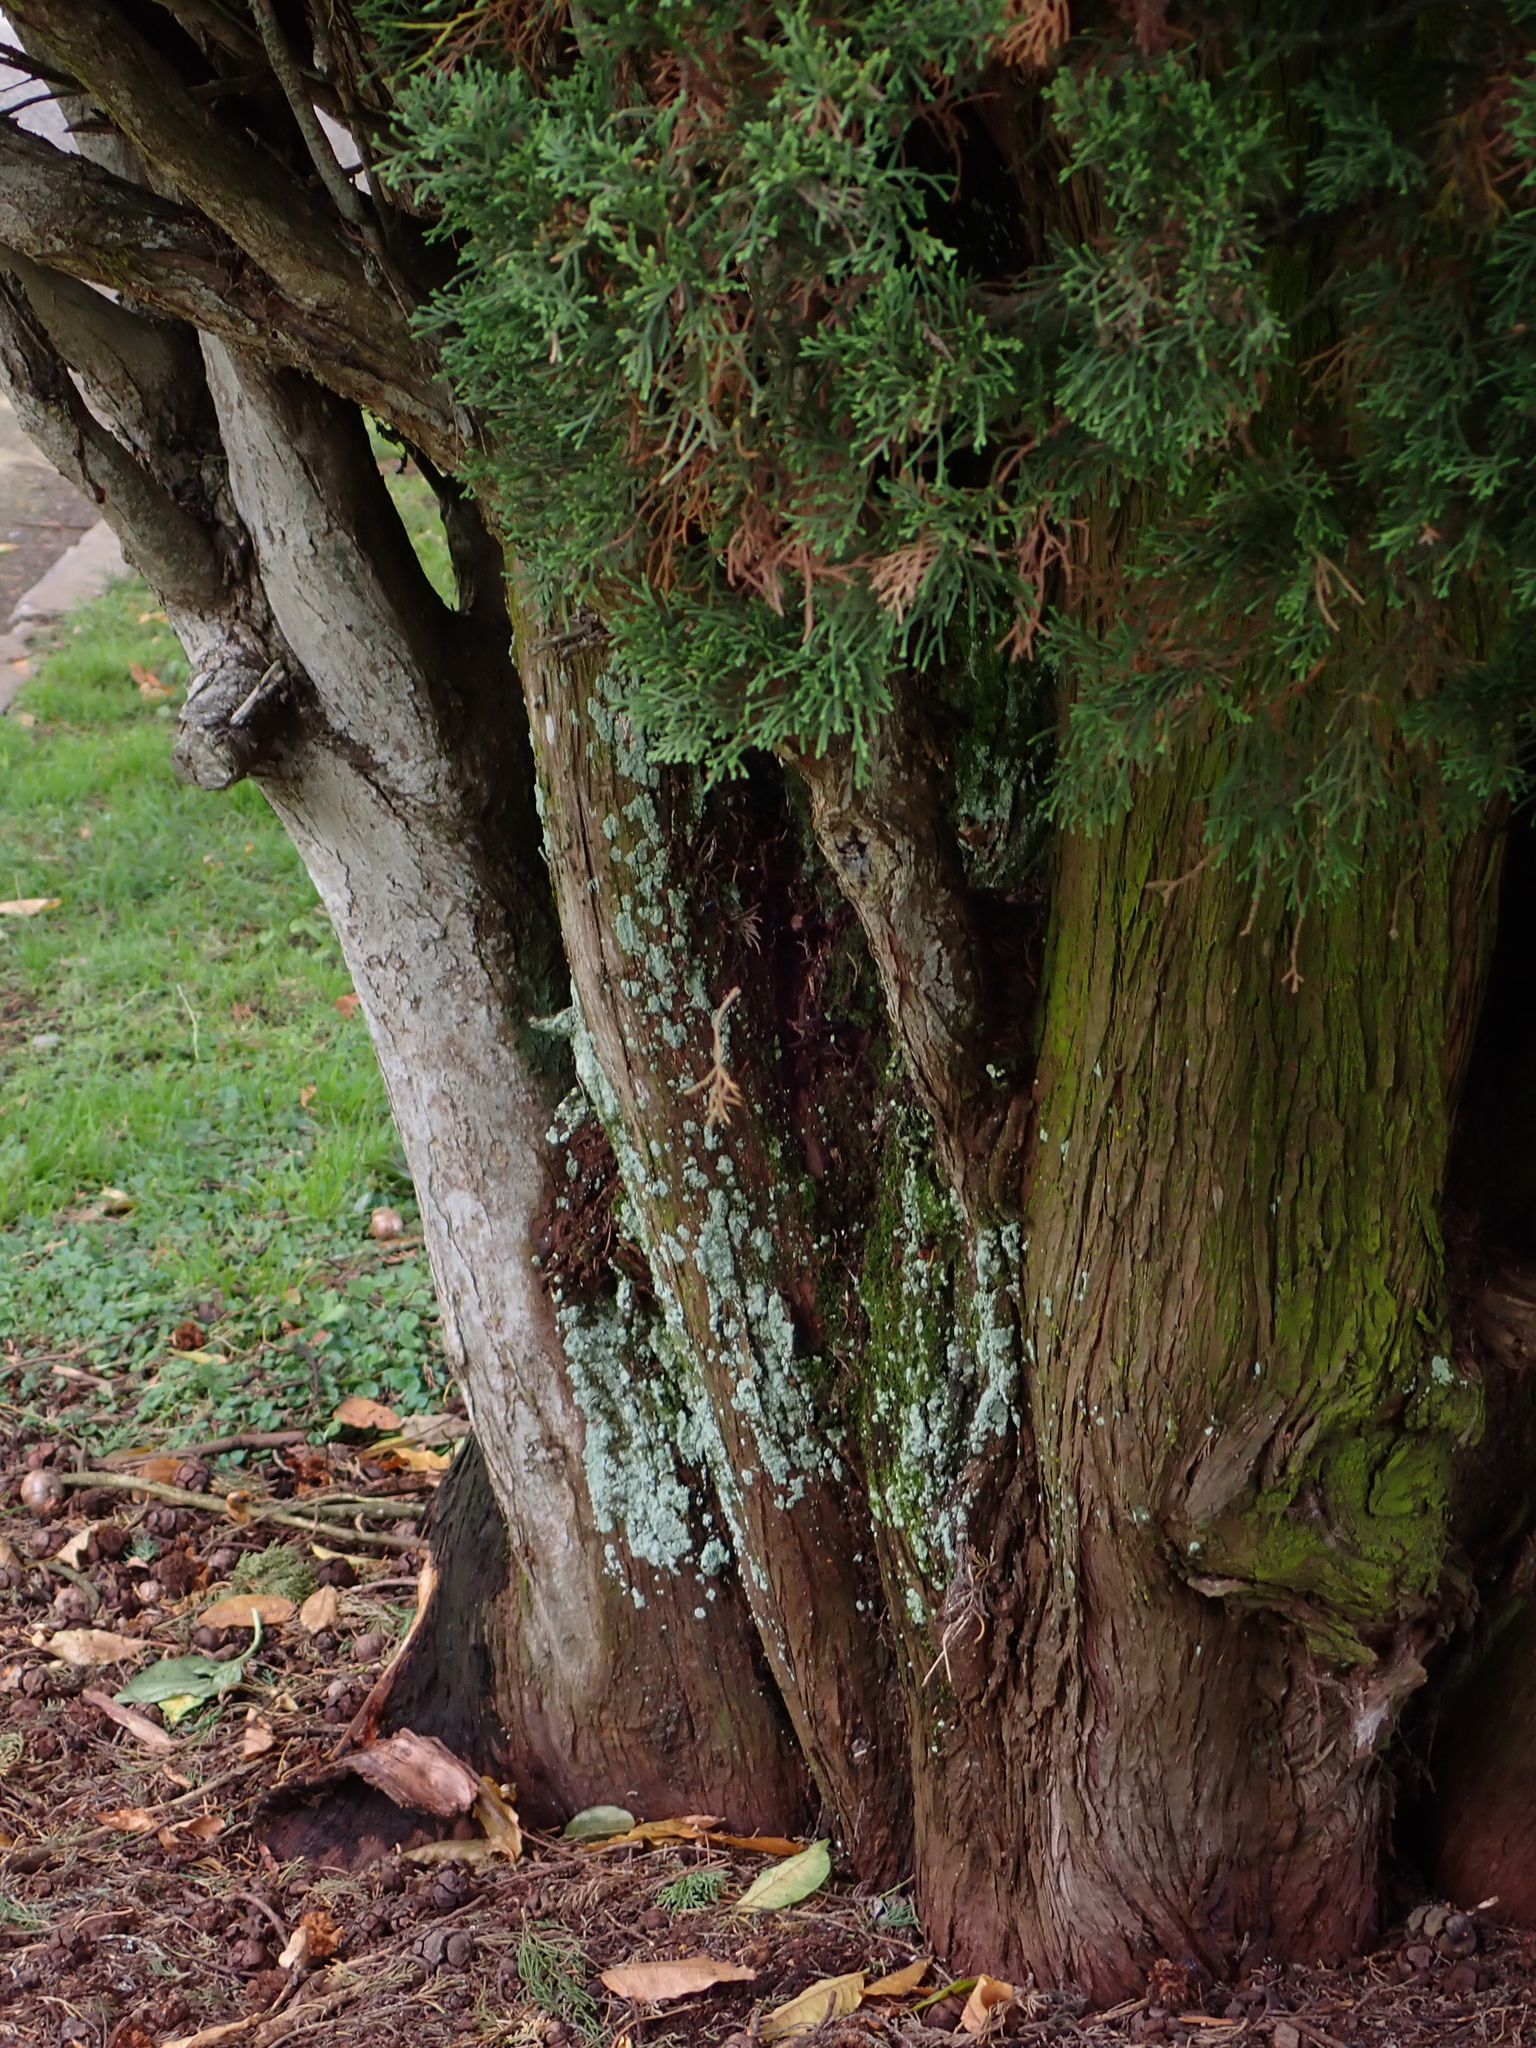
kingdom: Plantae
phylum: Bryophyta
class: Bryopsida
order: Hypnales
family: Fabroniaceae
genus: Fabronia
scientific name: Fabronia australis
